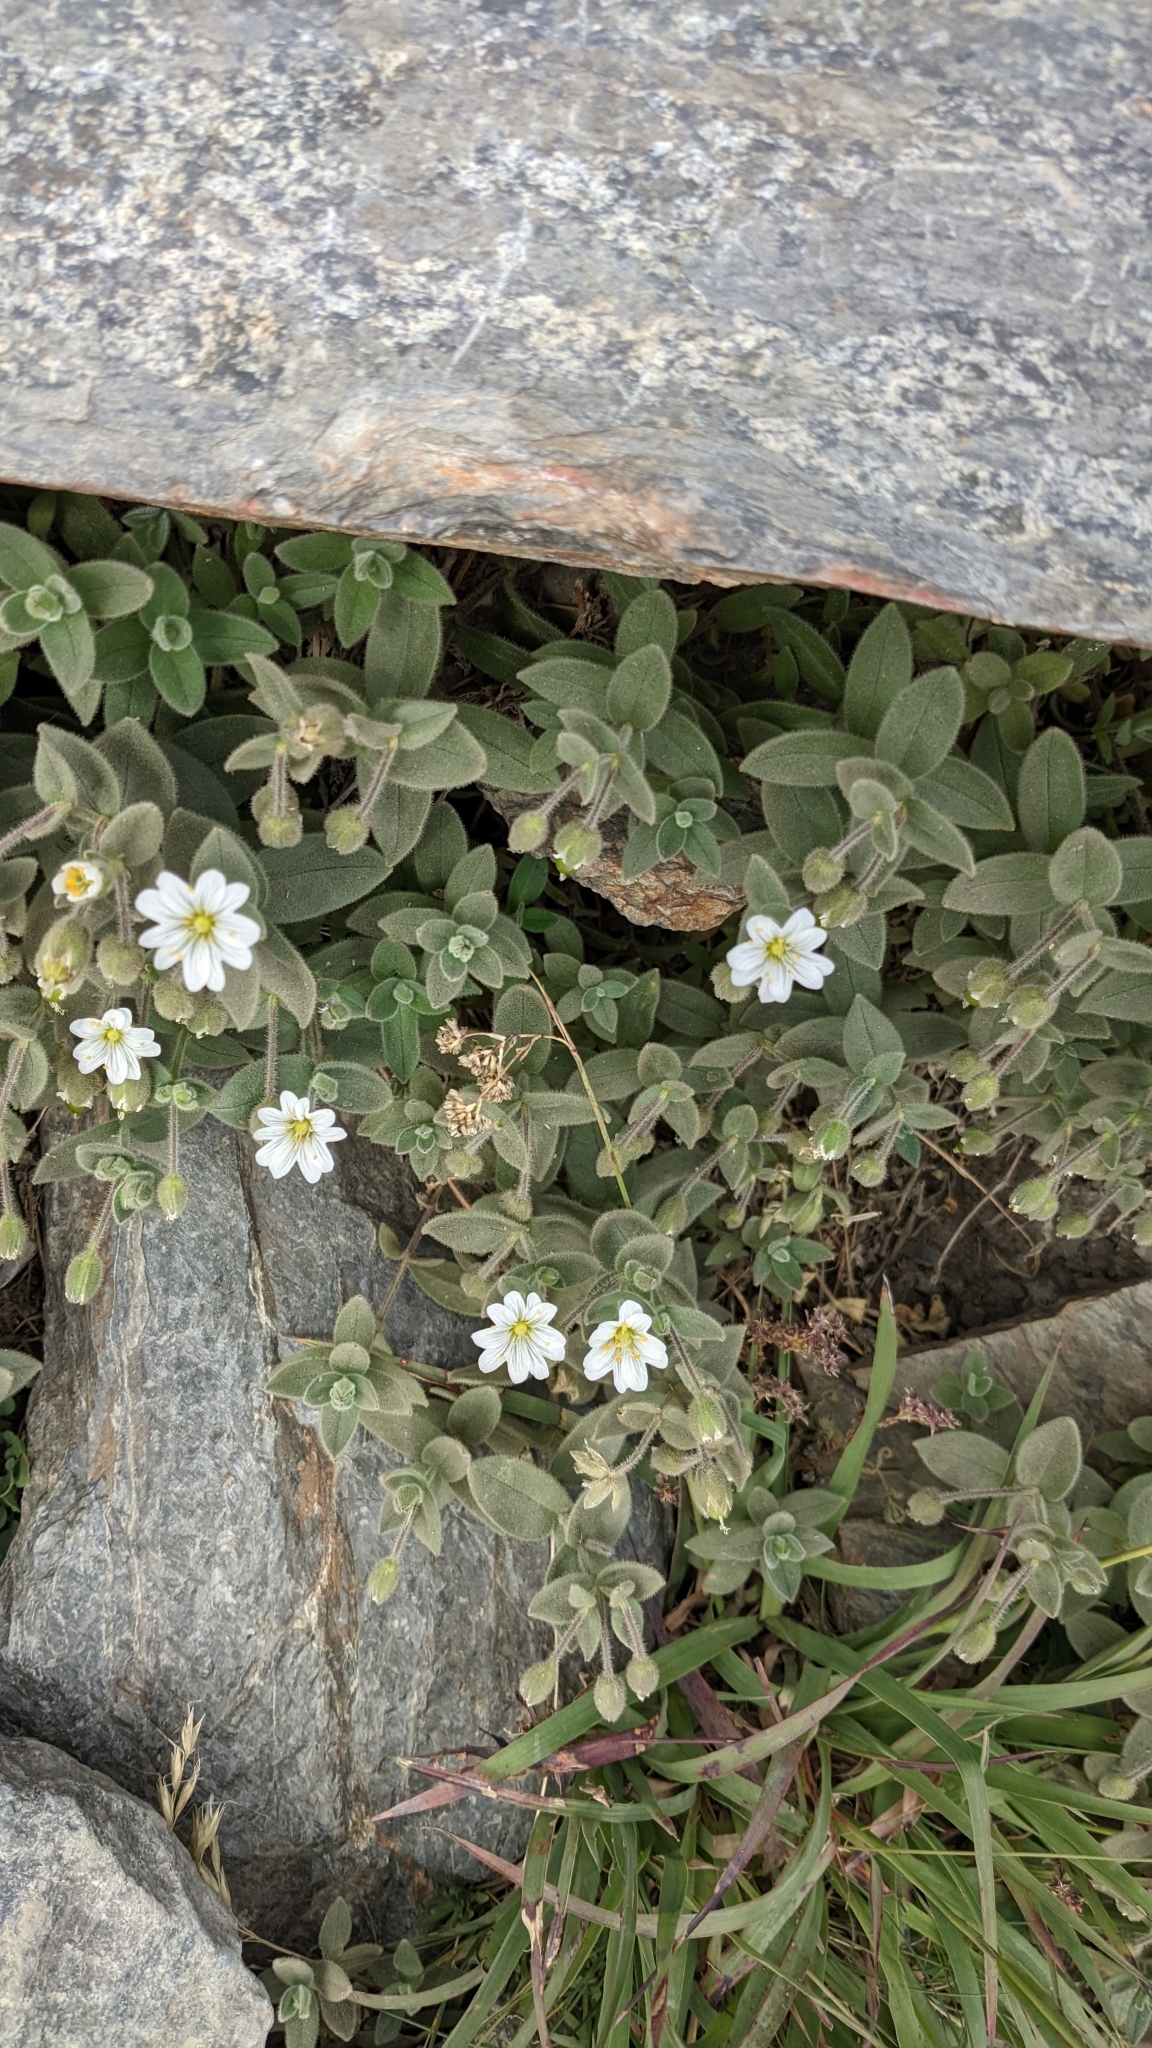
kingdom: Plantae
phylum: Tracheophyta
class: Magnoliopsida
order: Caryophyllales
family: Caryophyllaceae
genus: Cerastium
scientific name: Cerastium pyrenaicum
